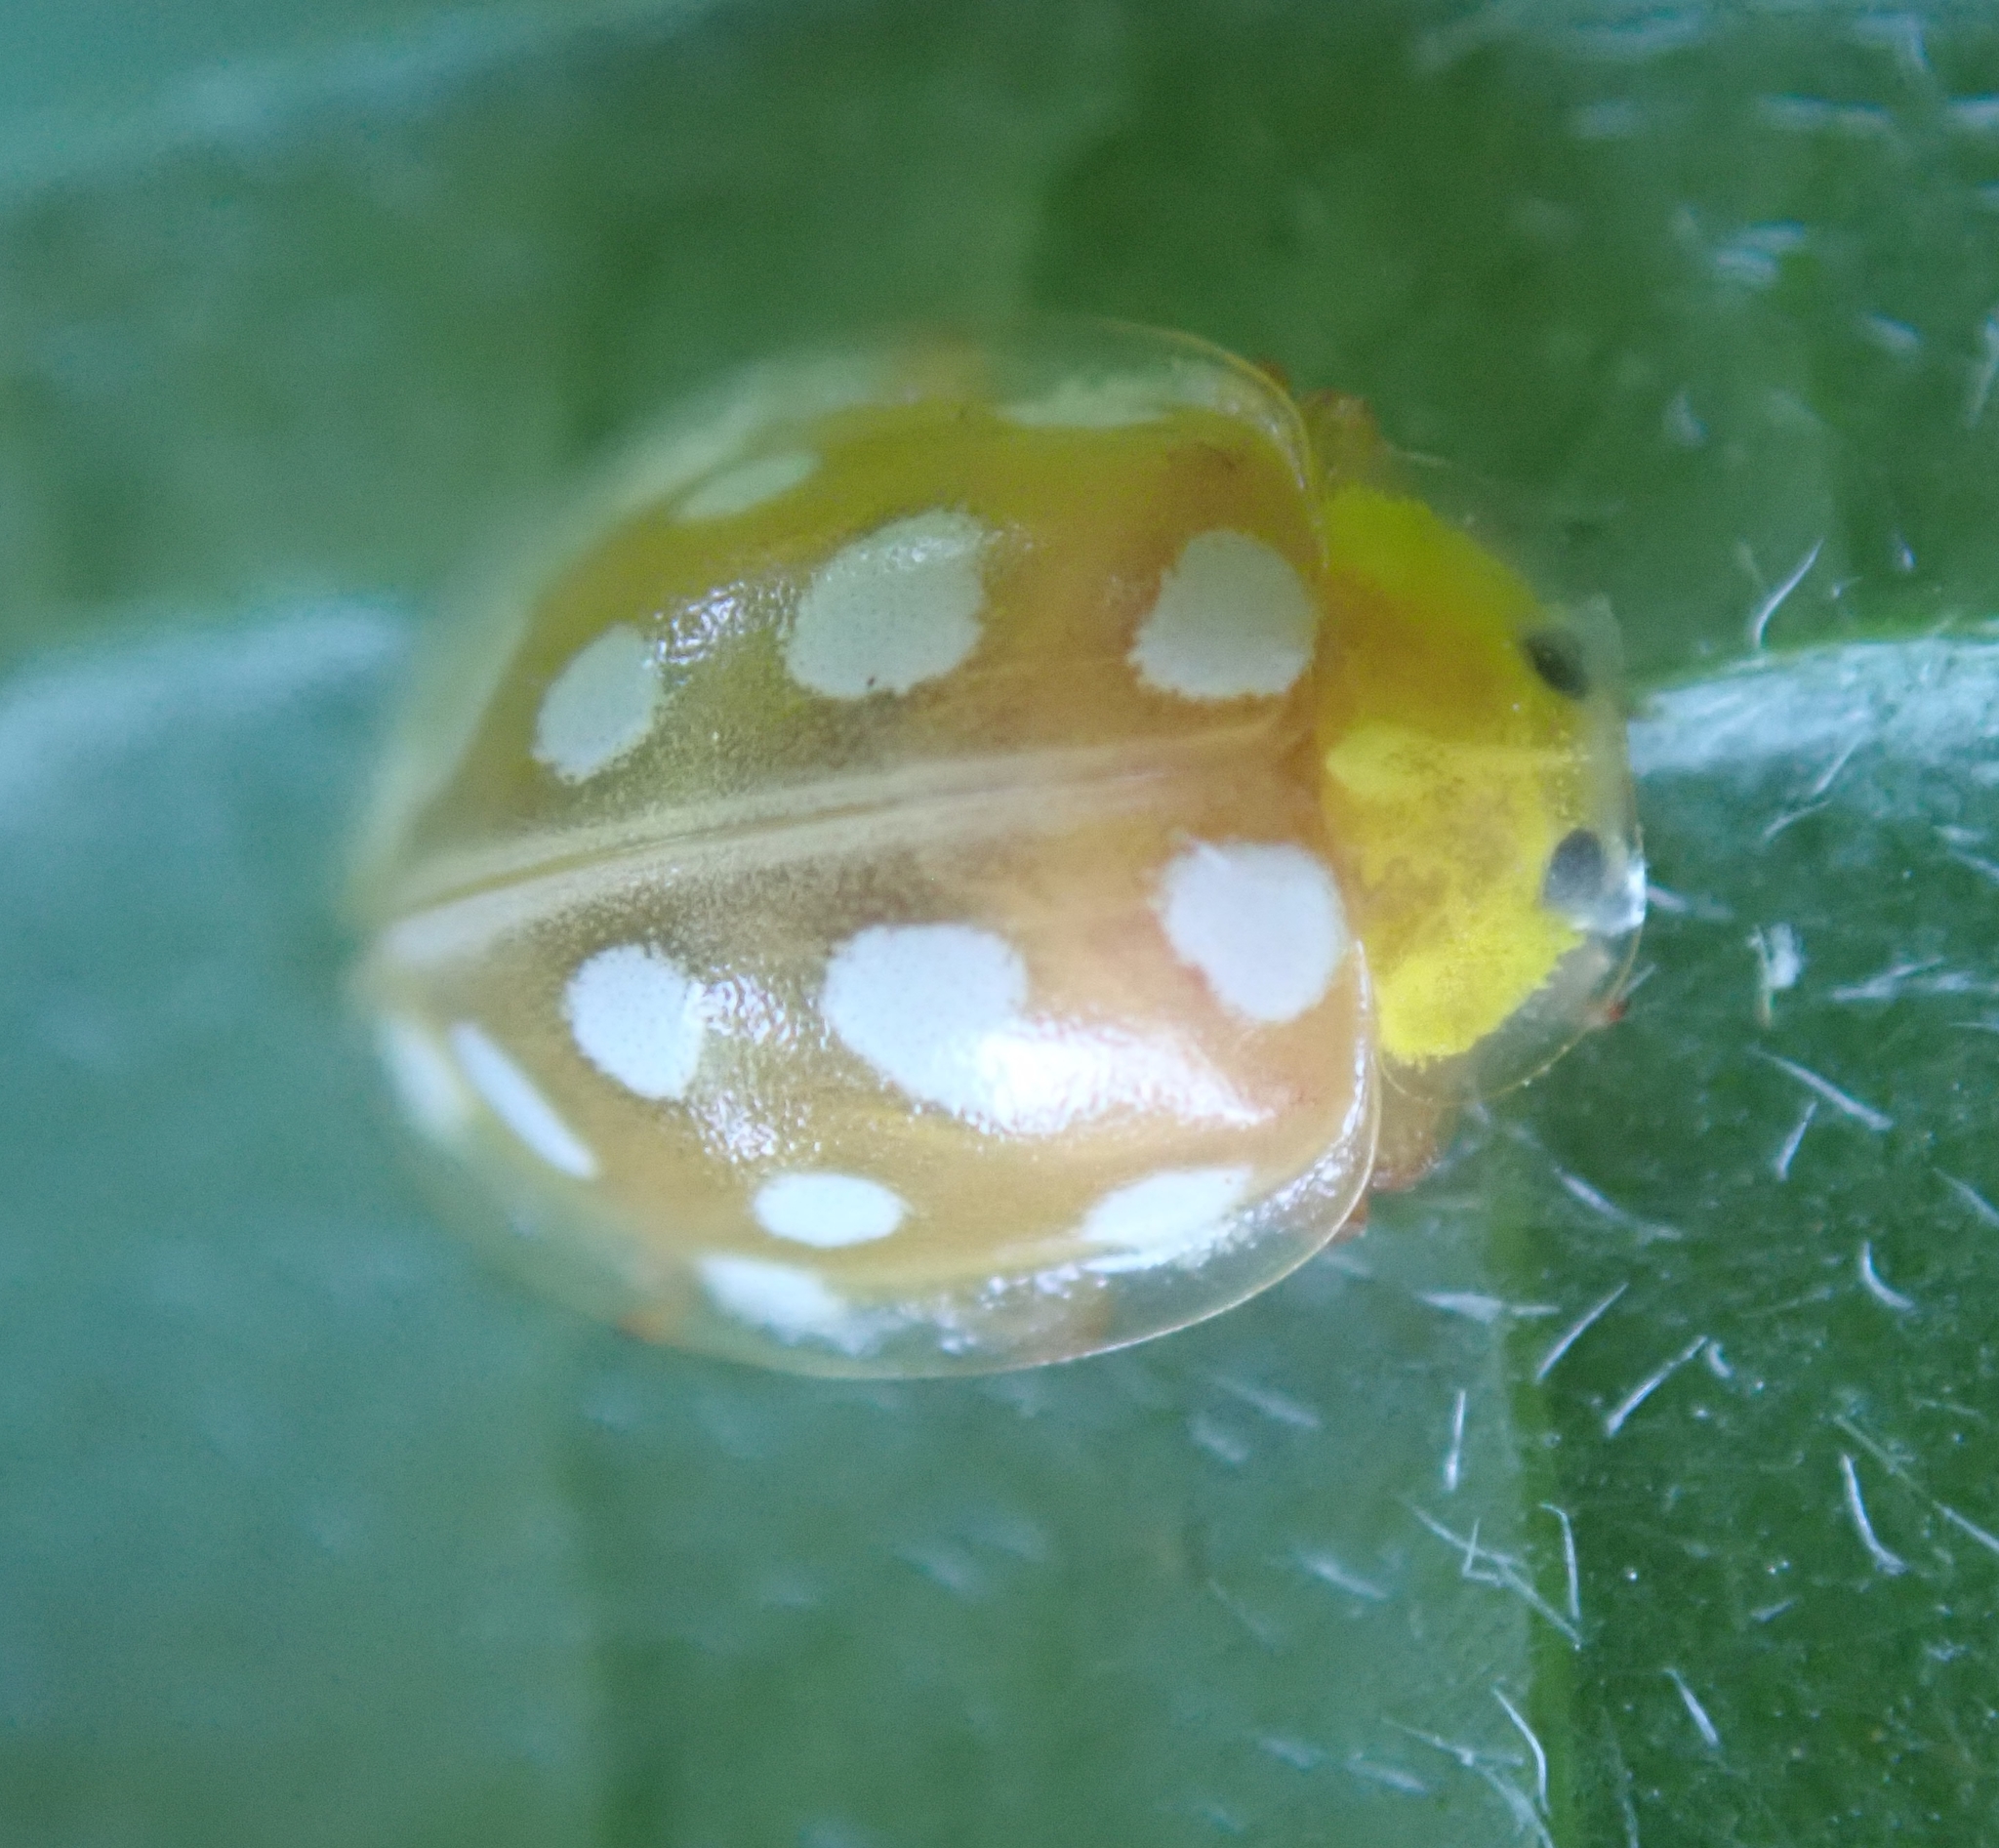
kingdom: Animalia
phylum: Arthropoda
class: Insecta
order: Coleoptera
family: Coccinellidae
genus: Halyzia
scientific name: Halyzia sedecimguttata
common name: Orange ladybird
